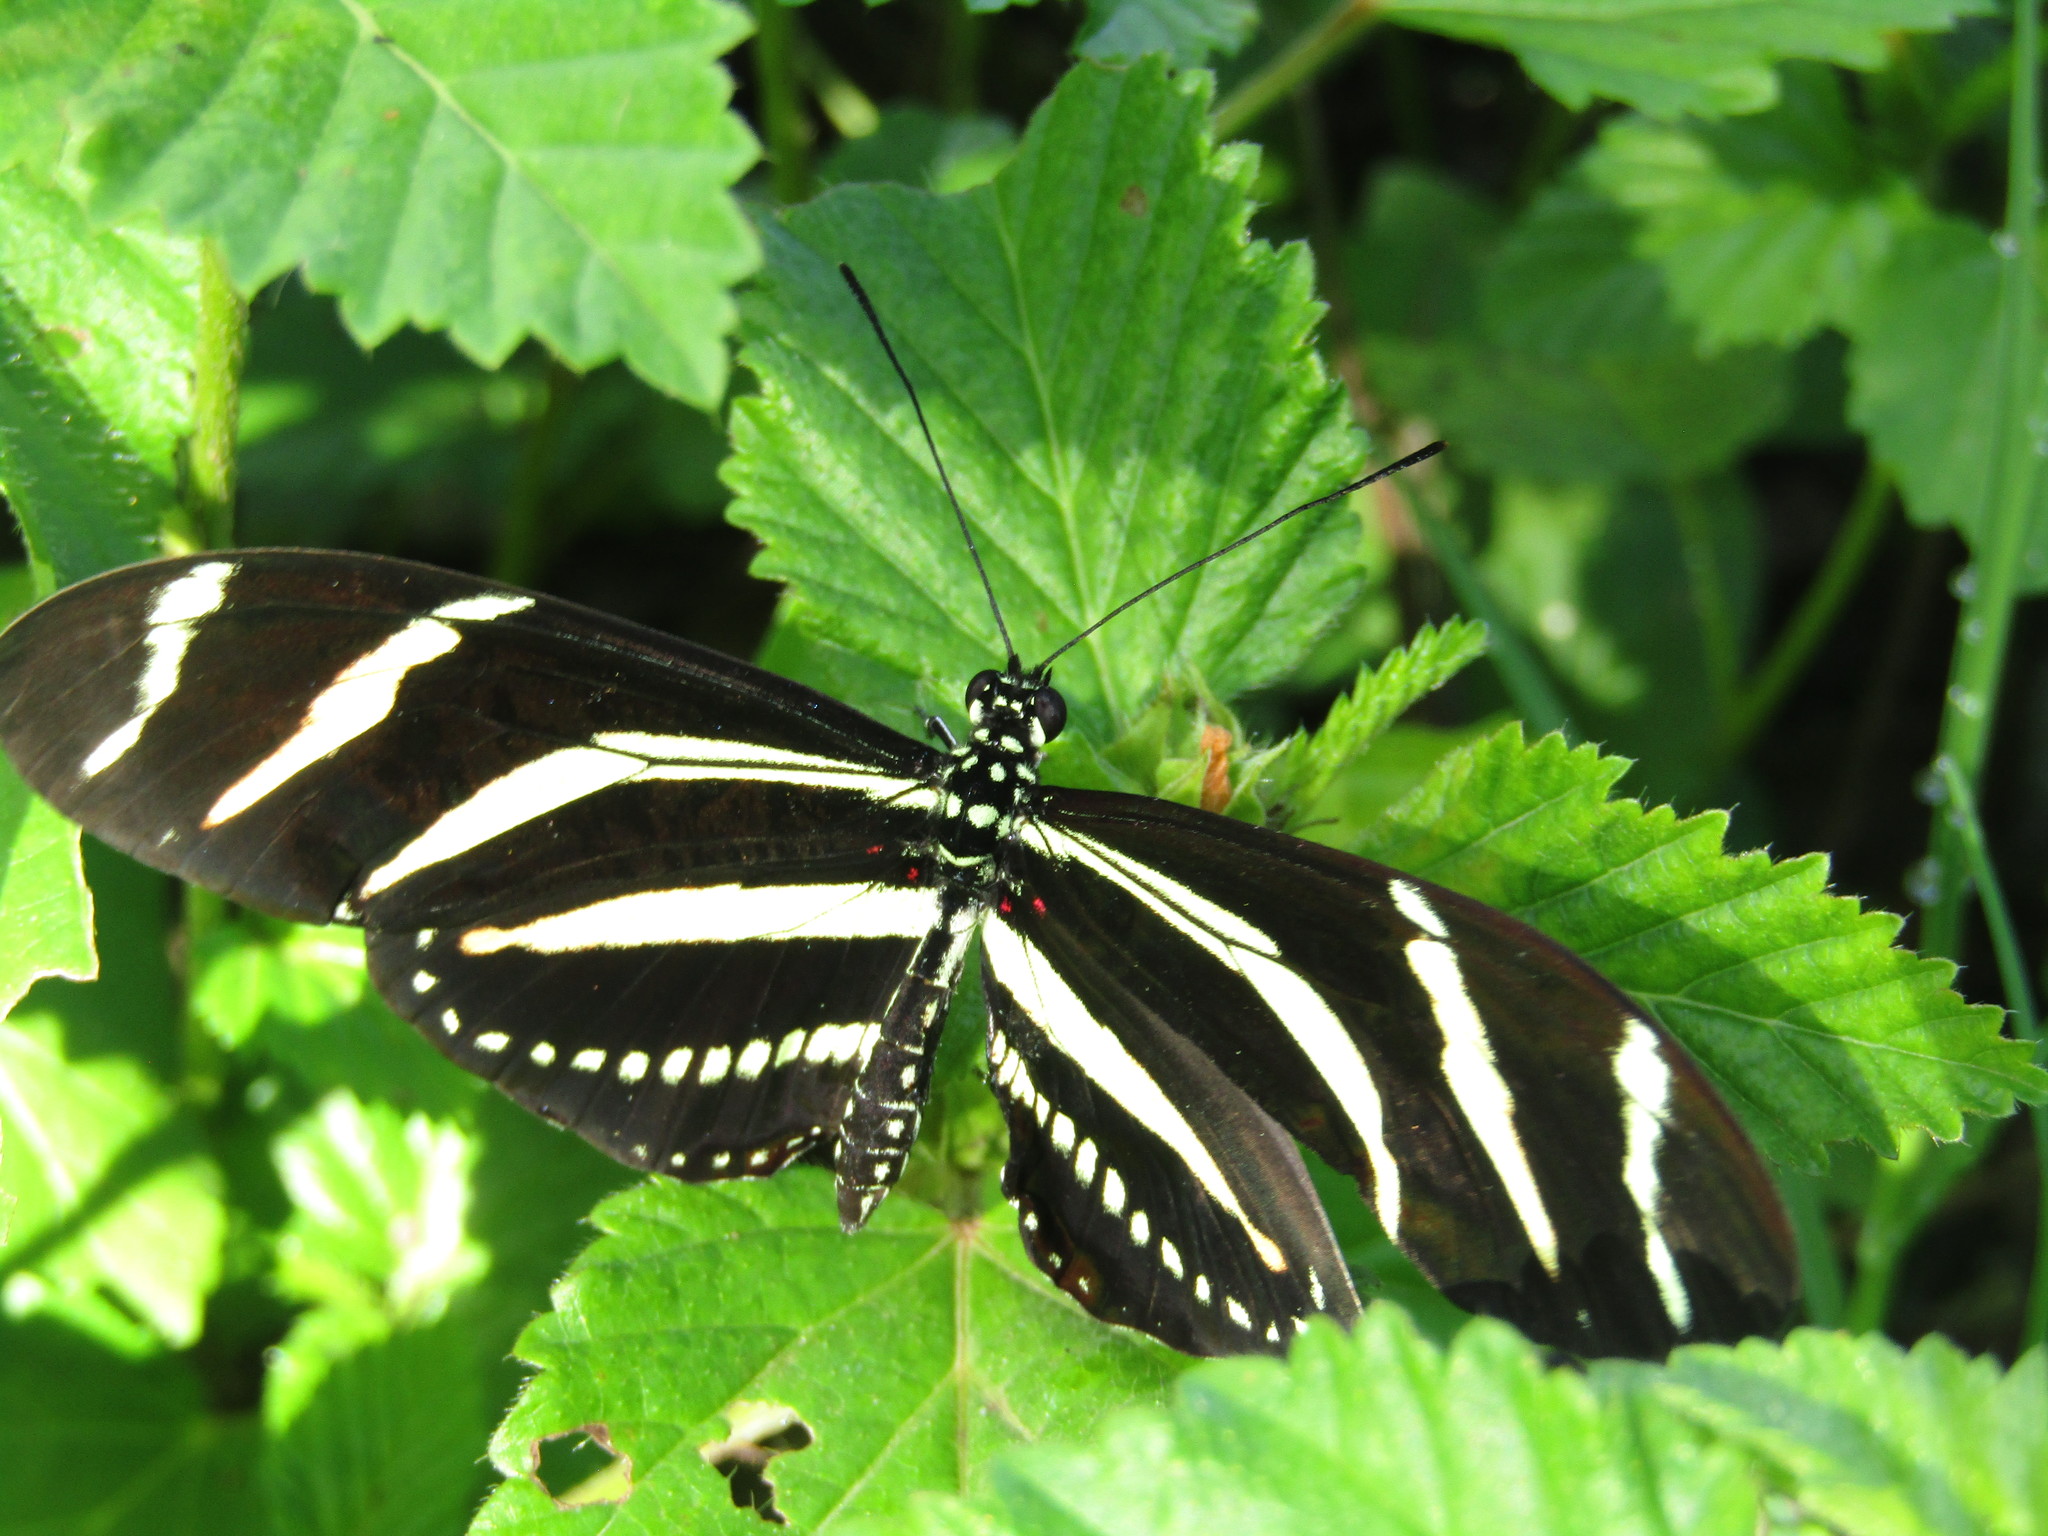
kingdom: Animalia
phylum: Arthropoda
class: Insecta
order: Lepidoptera
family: Nymphalidae
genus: Heliconius
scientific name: Heliconius charithonia
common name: Zebra long wing
